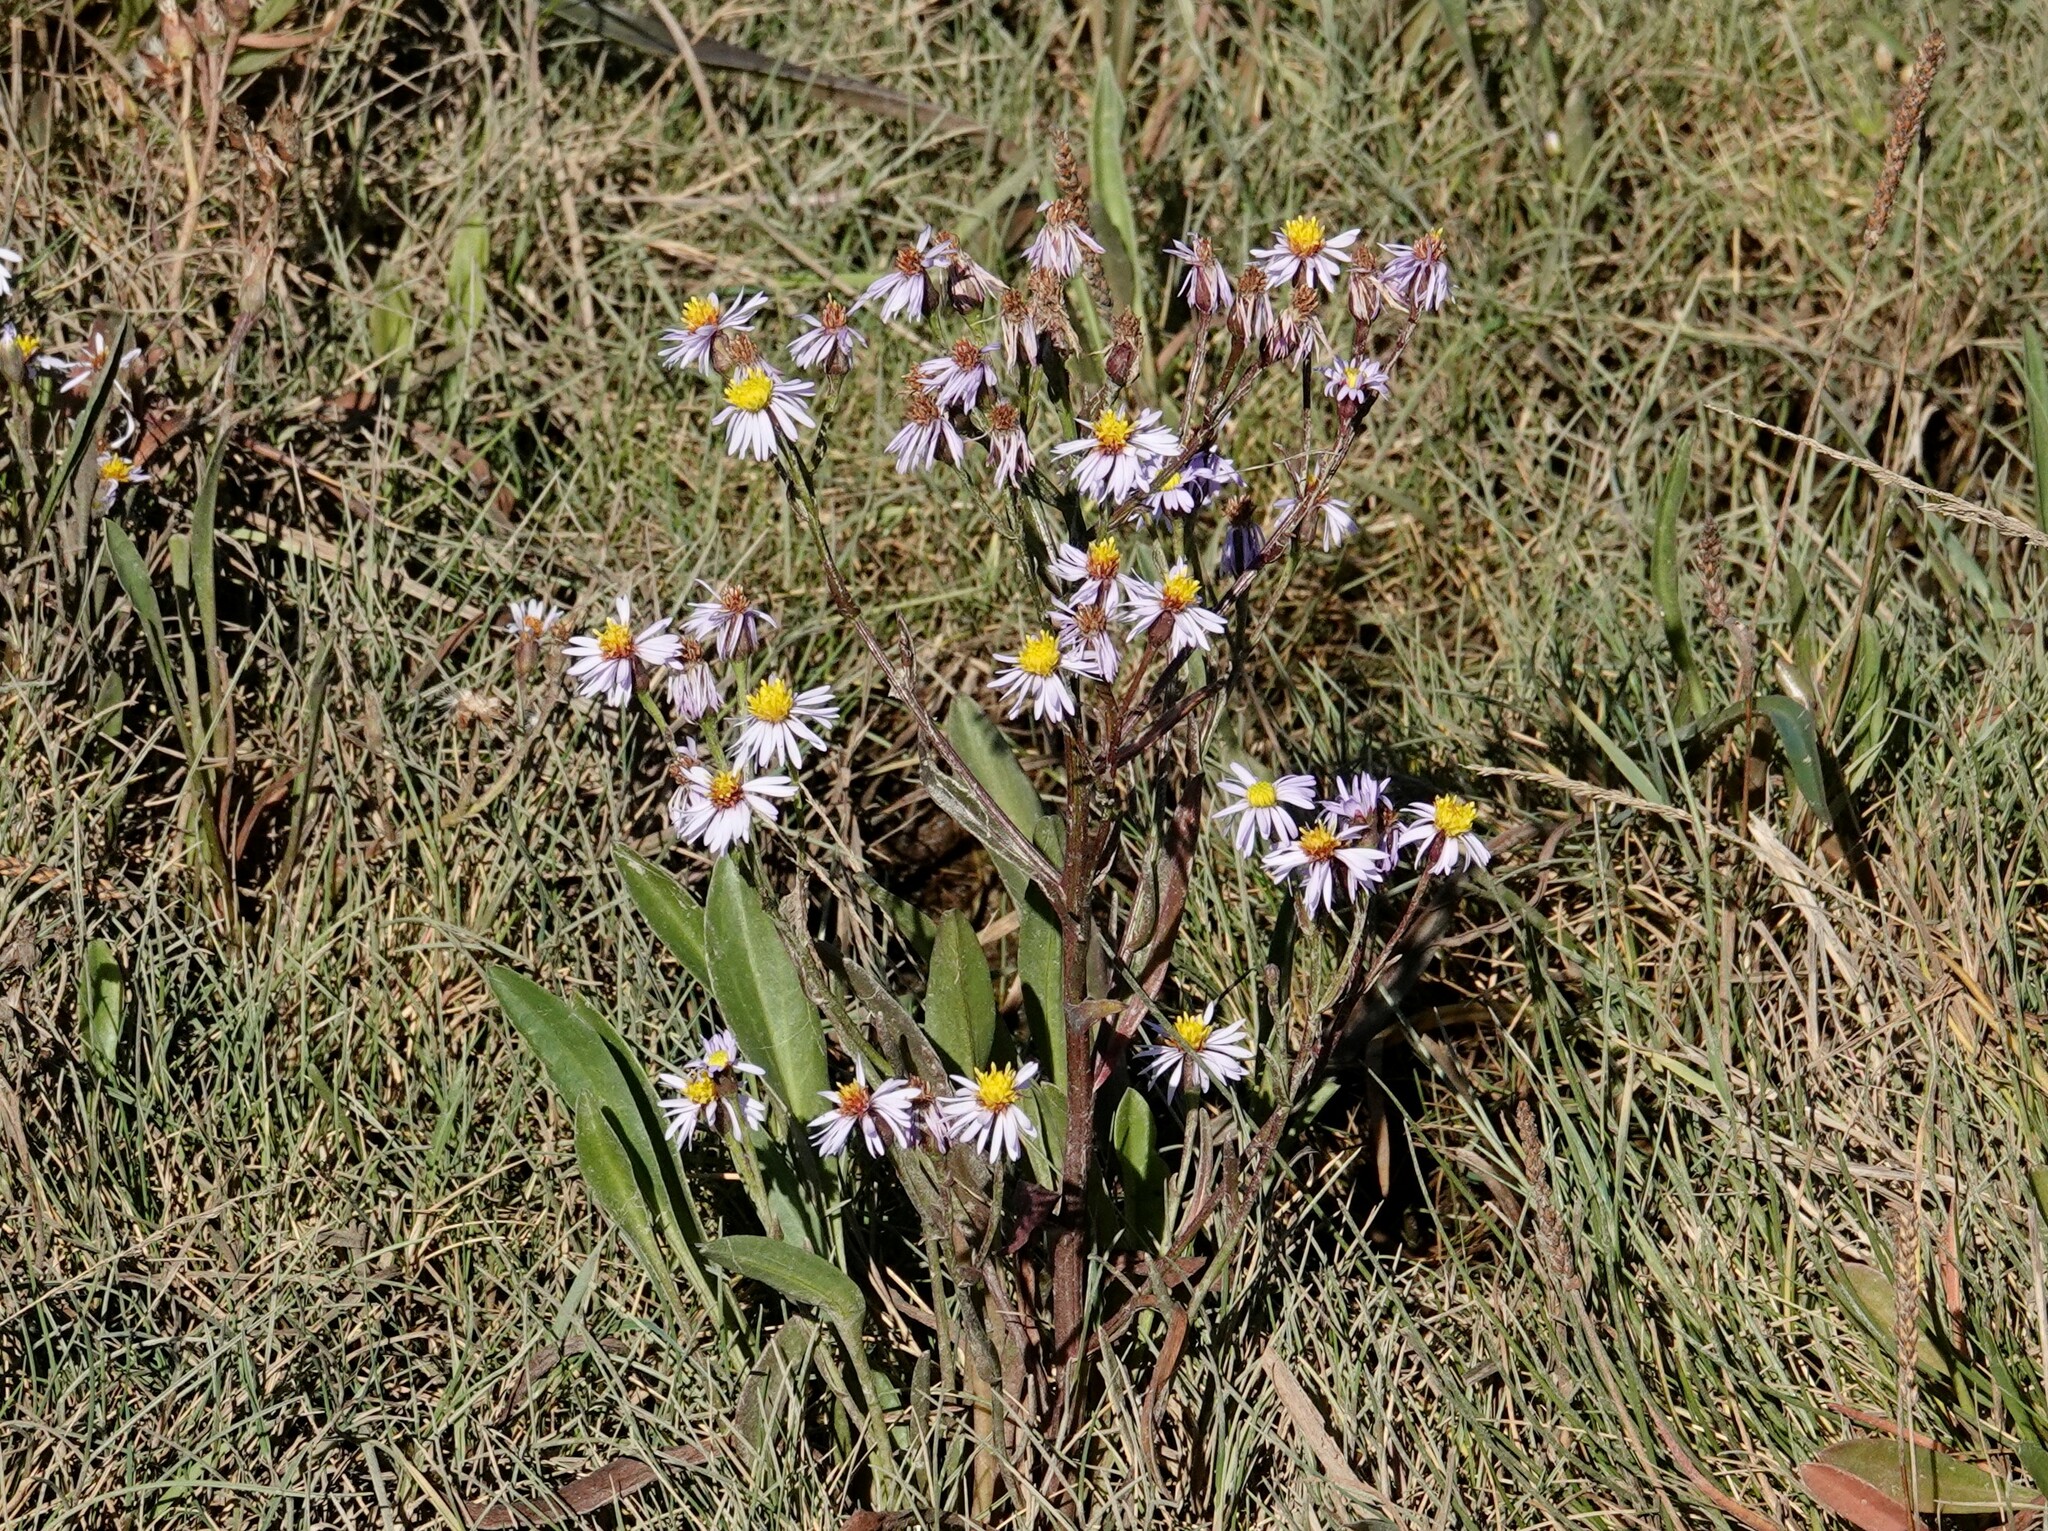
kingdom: Plantae
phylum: Tracheophyta
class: Magnoliopsida
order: Asterales
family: Asteraceae
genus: Tripolium
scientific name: Tripolium pannonicum
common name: Sea aster
